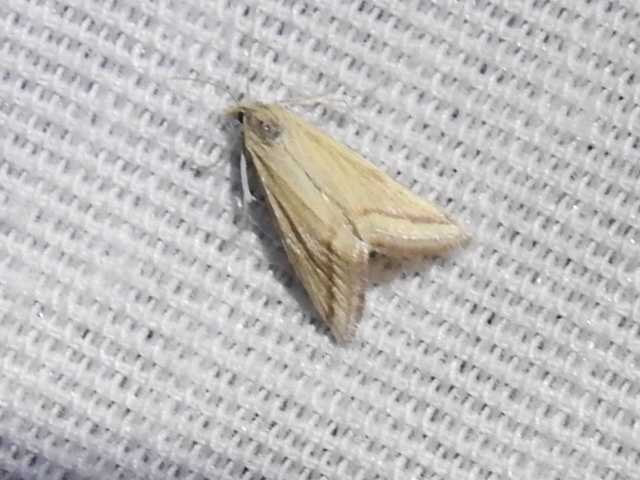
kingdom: Animalia
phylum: Arthropoda
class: Insecta
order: Lepidoptera
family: Crambidae
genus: Microtheoris
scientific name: Microtheoris vibicalis
